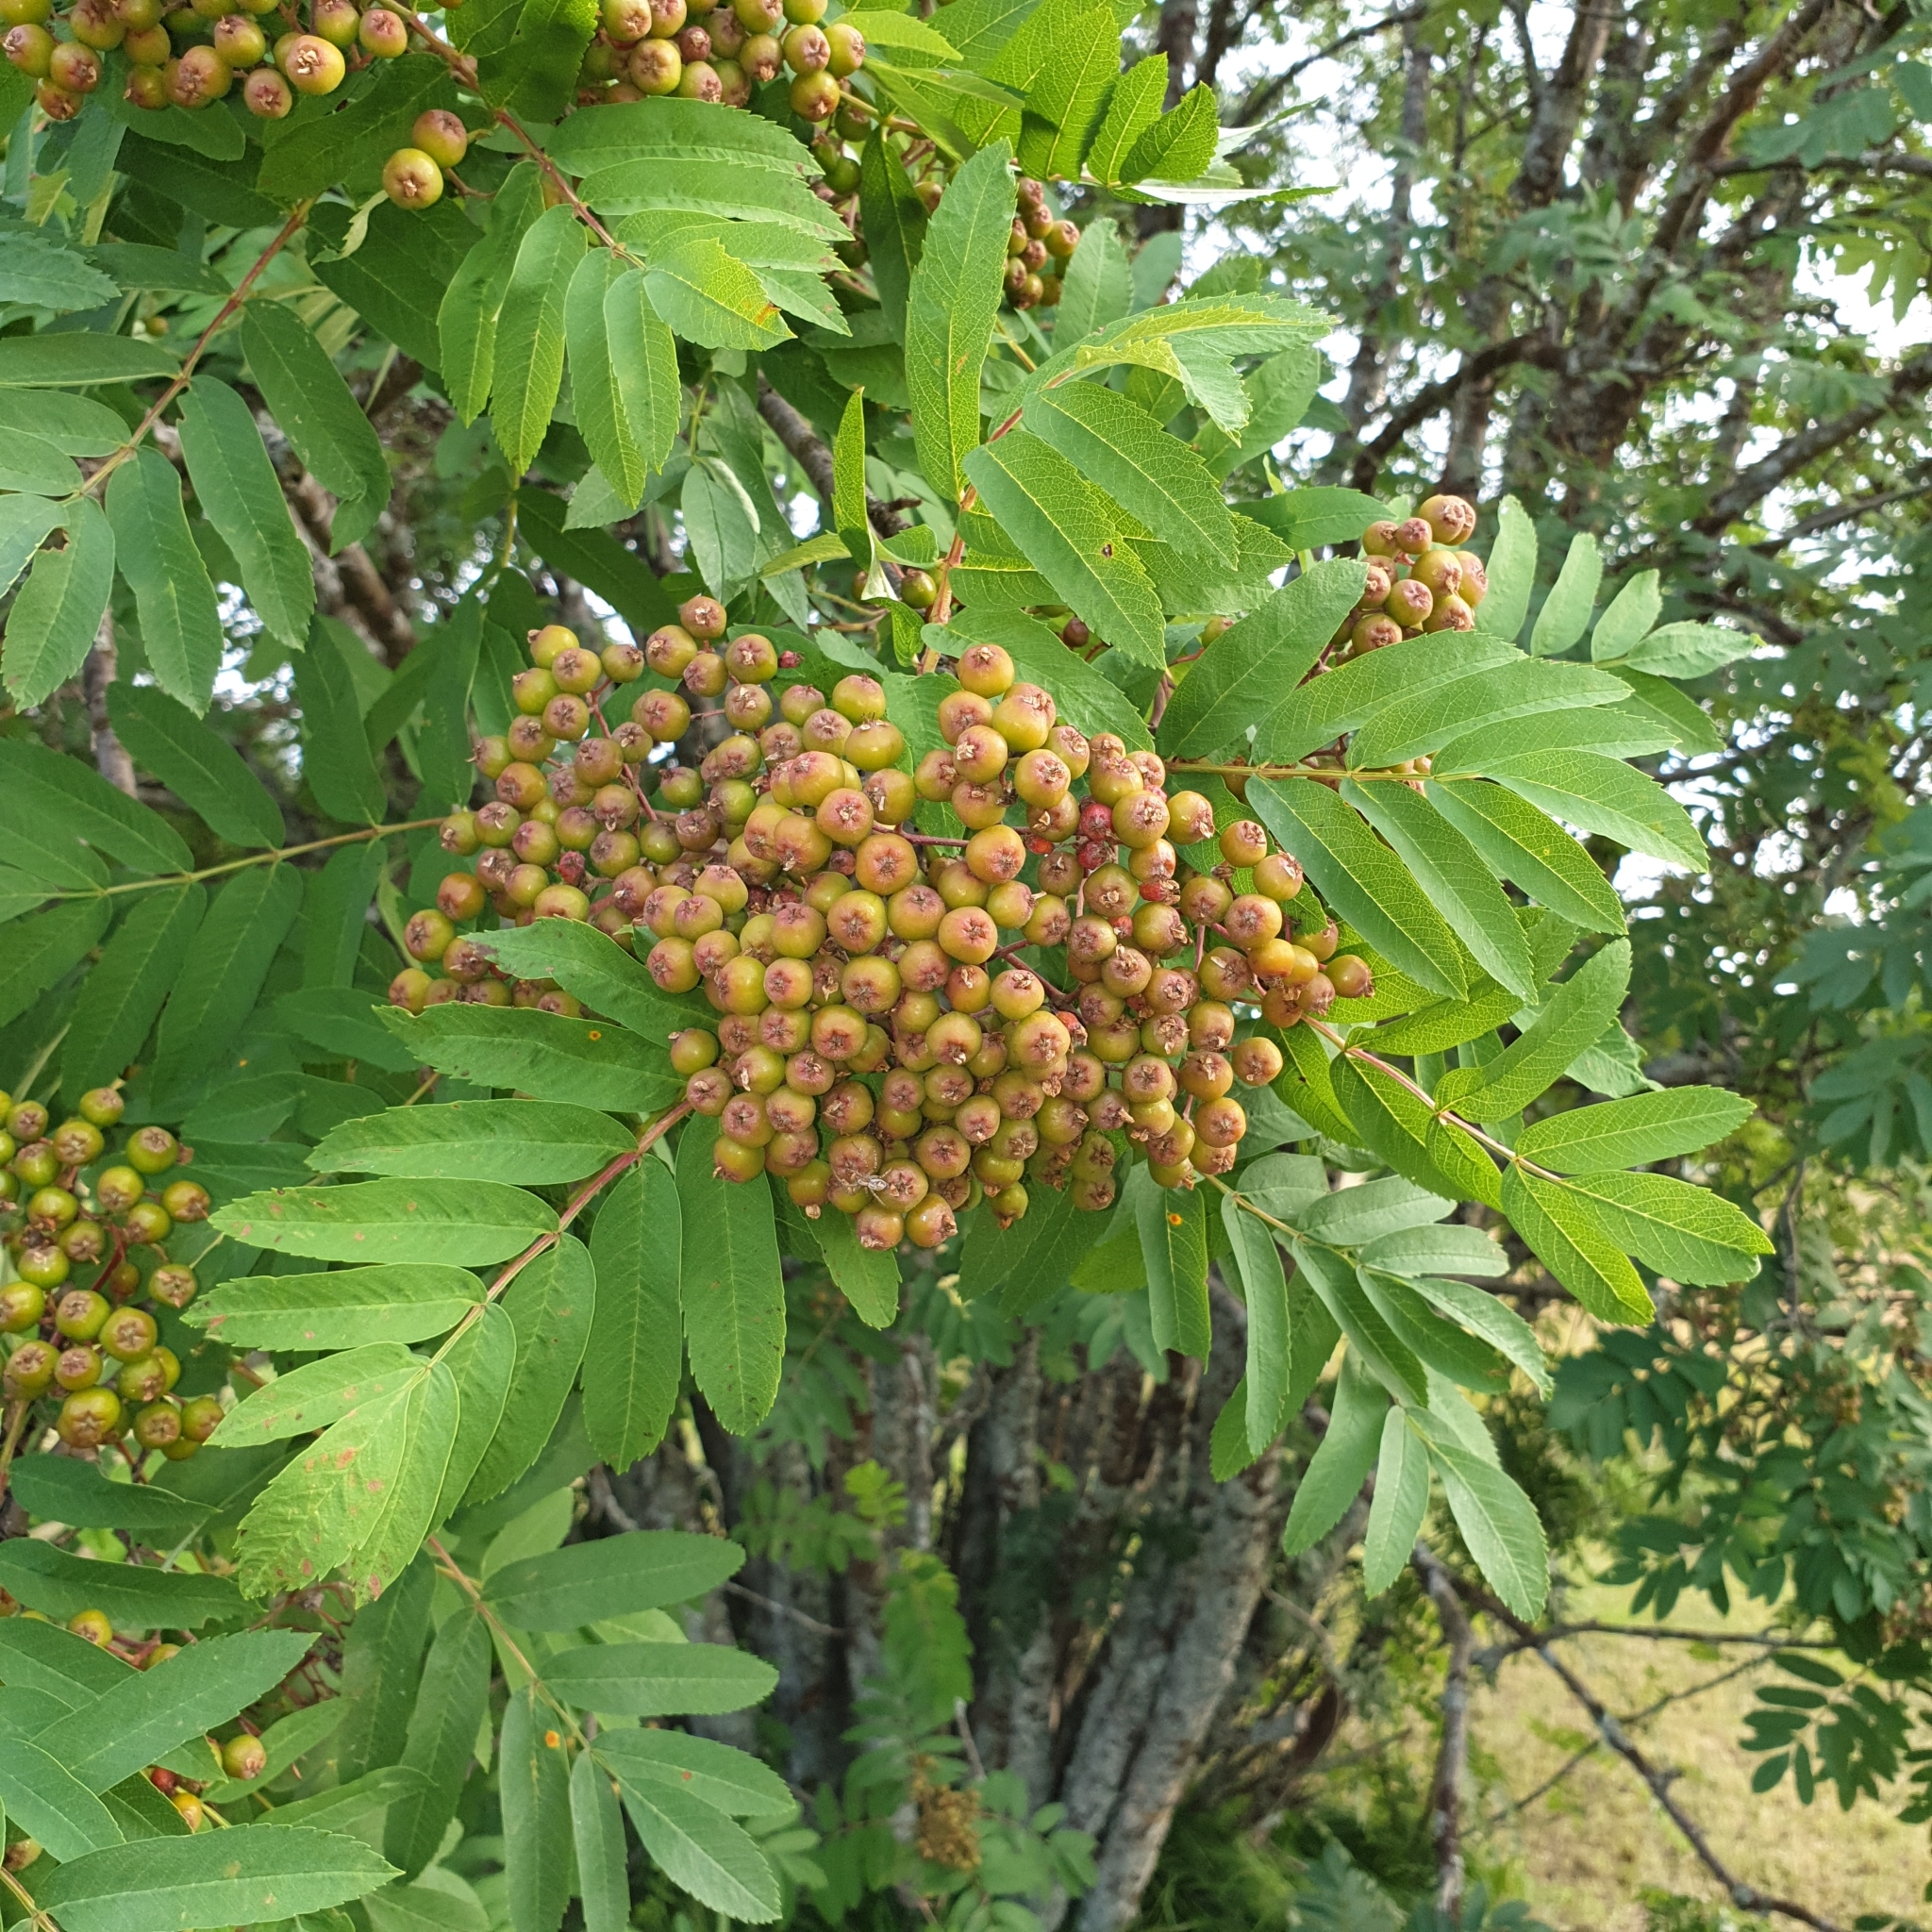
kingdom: Plantae
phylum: Tracheophyta
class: Magnoliopsida
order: Rosales
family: Rosaceae
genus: Sorbus
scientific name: Sorbus aucuparia
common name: Rowan
